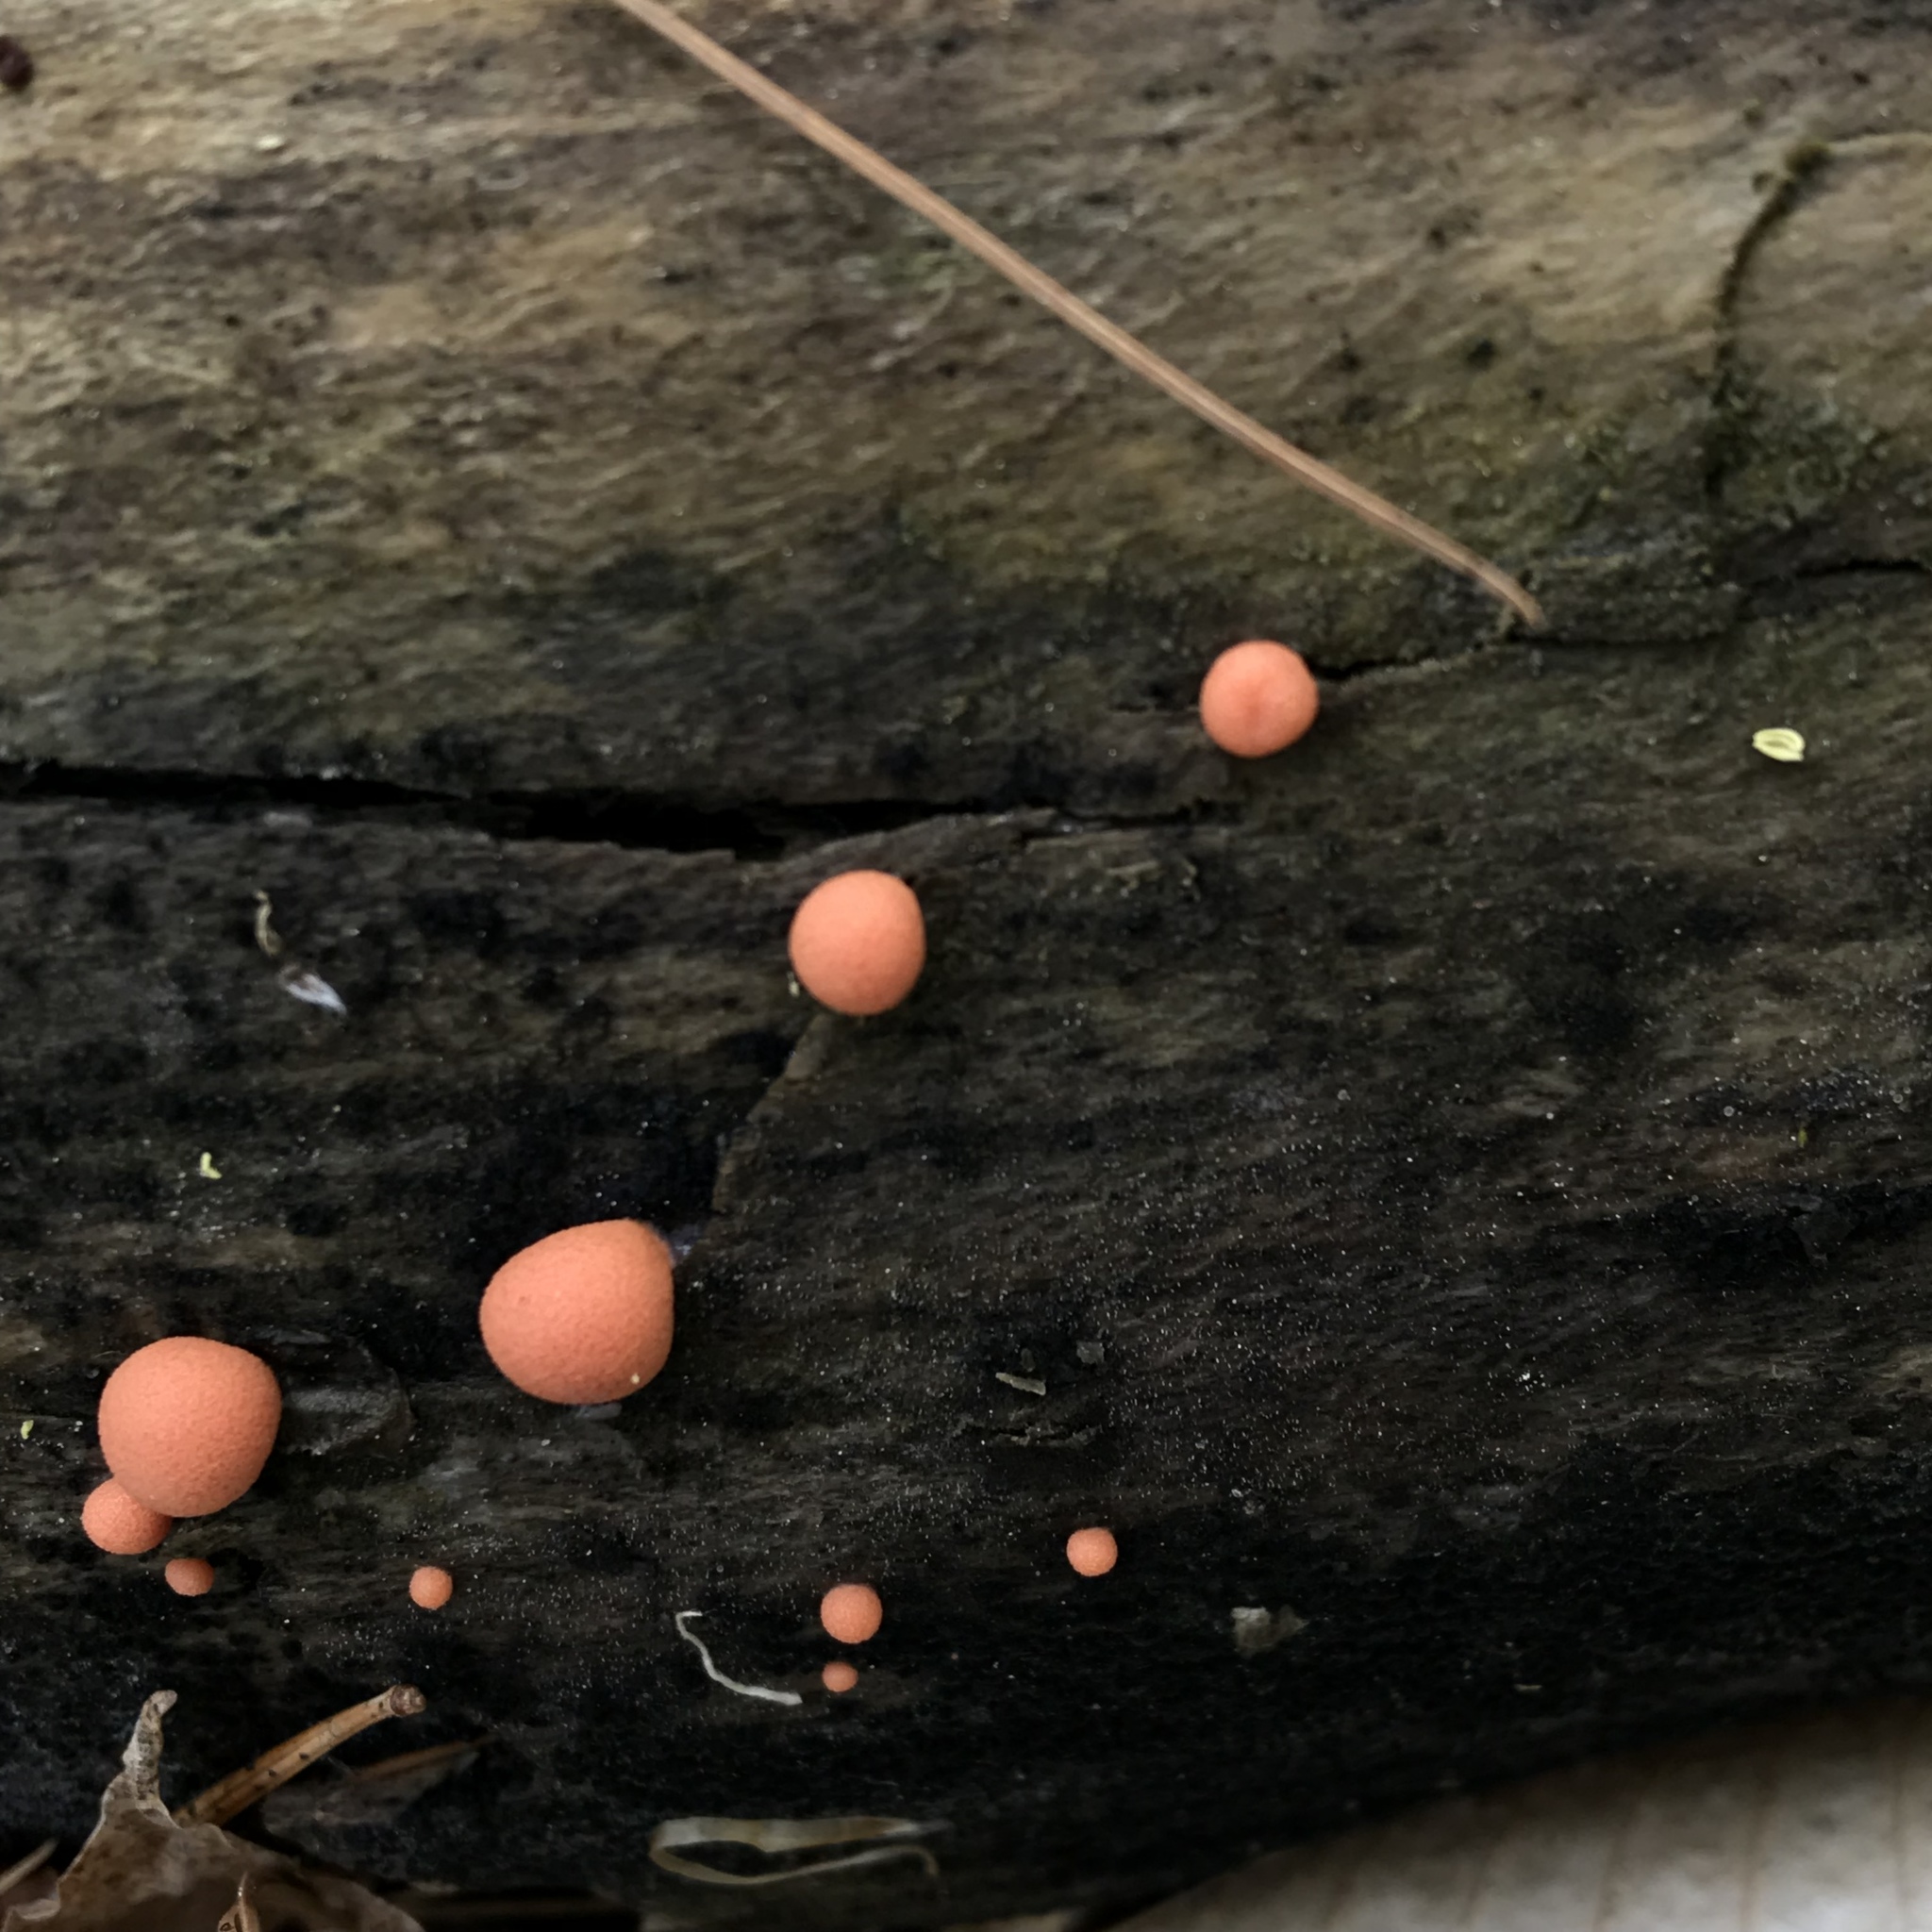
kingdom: Protozoa
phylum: Mycetozoa
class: Myxomycetes
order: Cribrariales
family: Tubiferaceae
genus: Lycogala
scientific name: Lycogala epidendrum
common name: Wolf's milk
